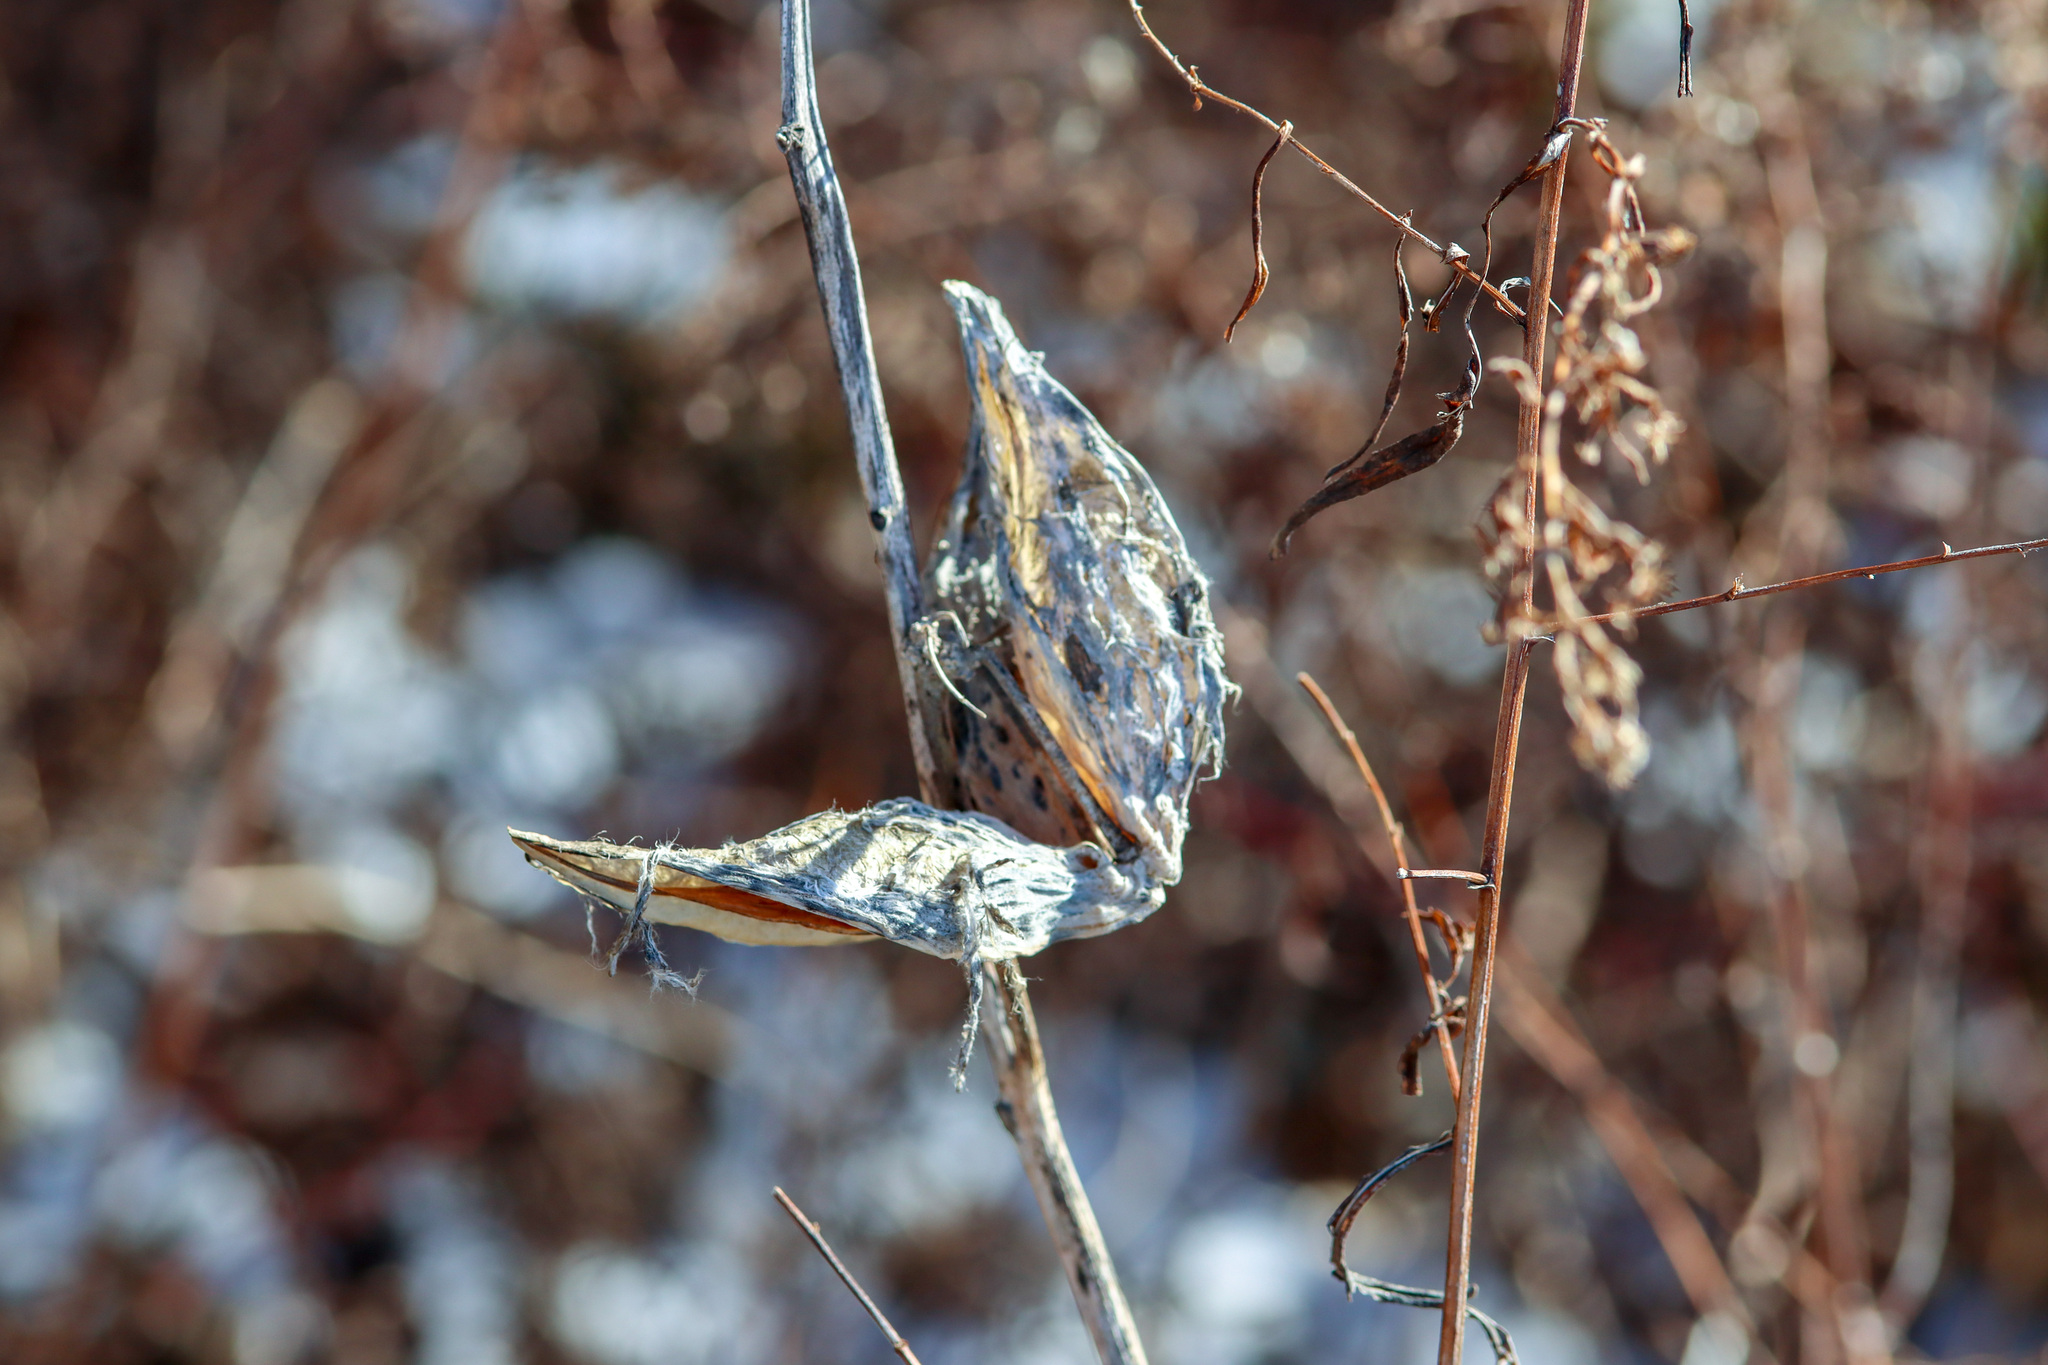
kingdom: Plantae
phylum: Tracheophyta
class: Magnoliopsida
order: Gentianales
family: Apocynaceae
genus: Asclepias
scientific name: Asclepias syriaca
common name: Common milkweed
